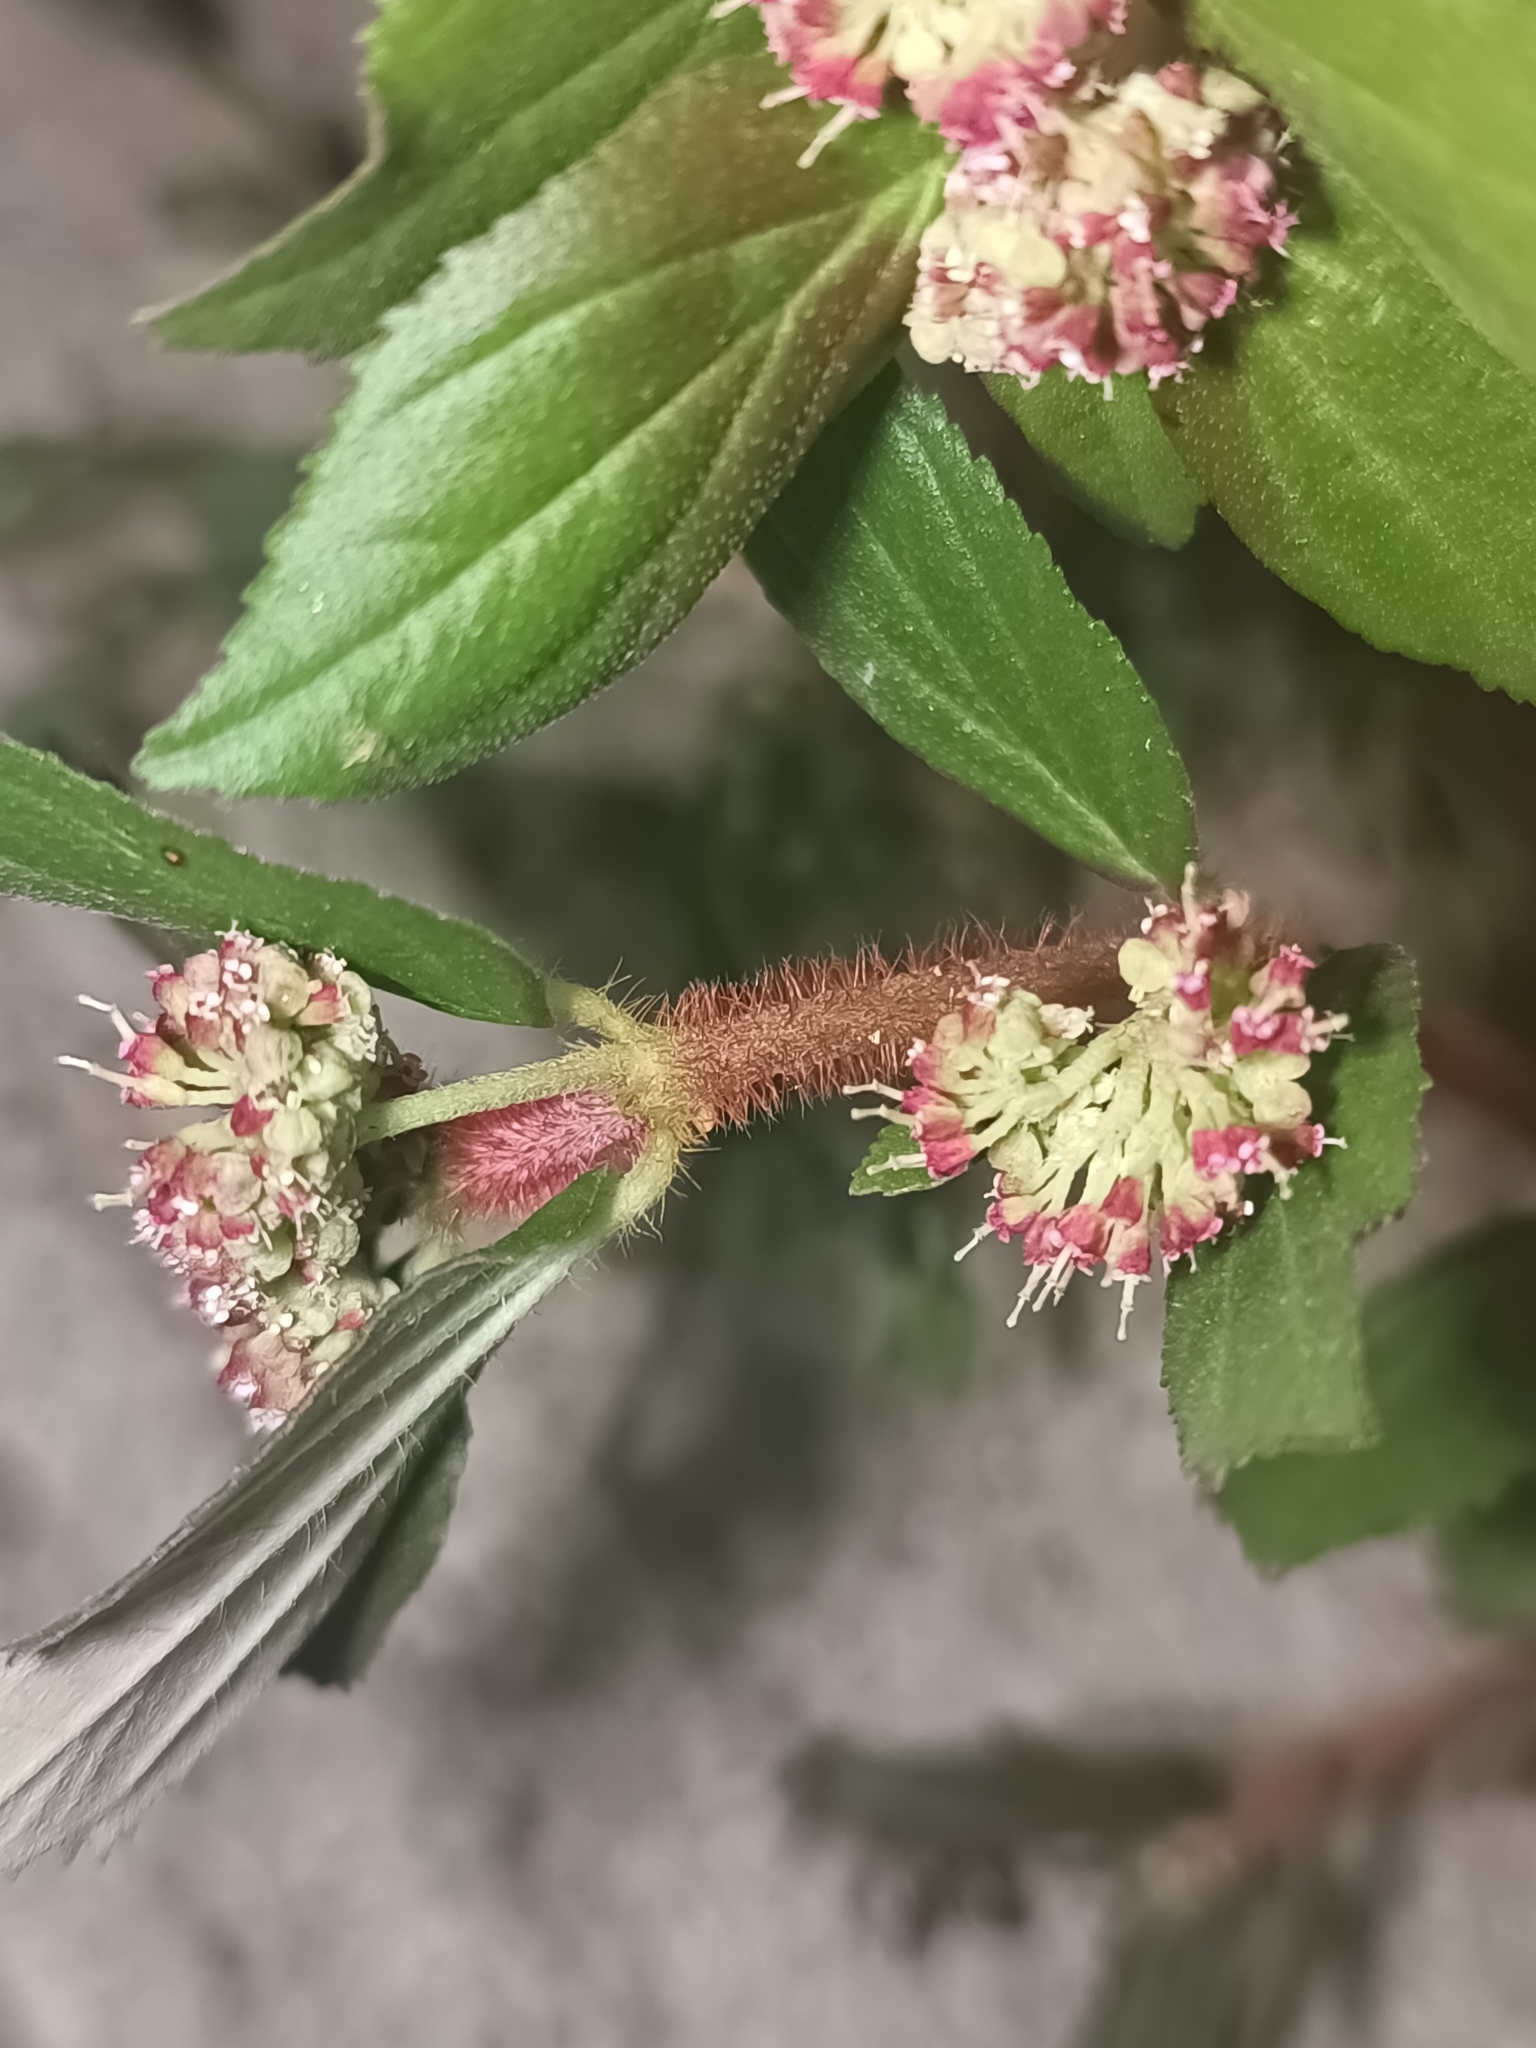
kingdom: Plantae
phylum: Tracheophyta
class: Magnoliopsida
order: Malpighiales
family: Euphorbiaceae
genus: Euphorbia
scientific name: Euphorbia hirta
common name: Pillpod sandmat
